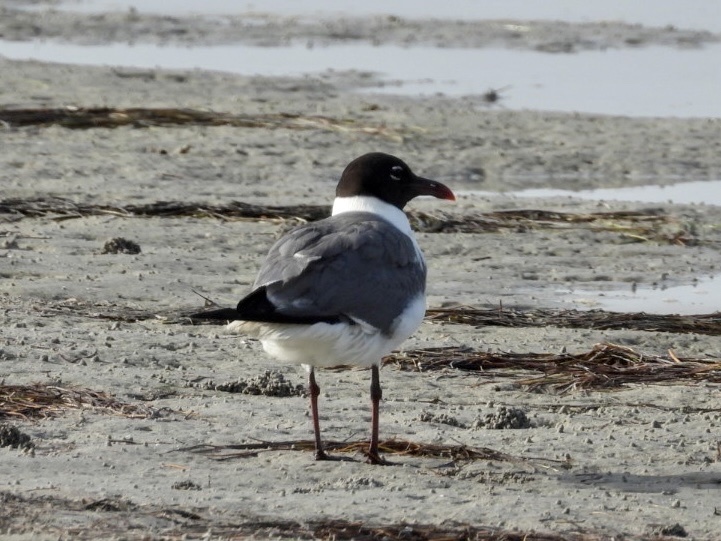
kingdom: Animalia
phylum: Chordata
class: Aves
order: Charadriiformes
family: Laridae
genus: Leucophaeus
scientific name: Leucophaeus atricilla
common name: Laughing gull
